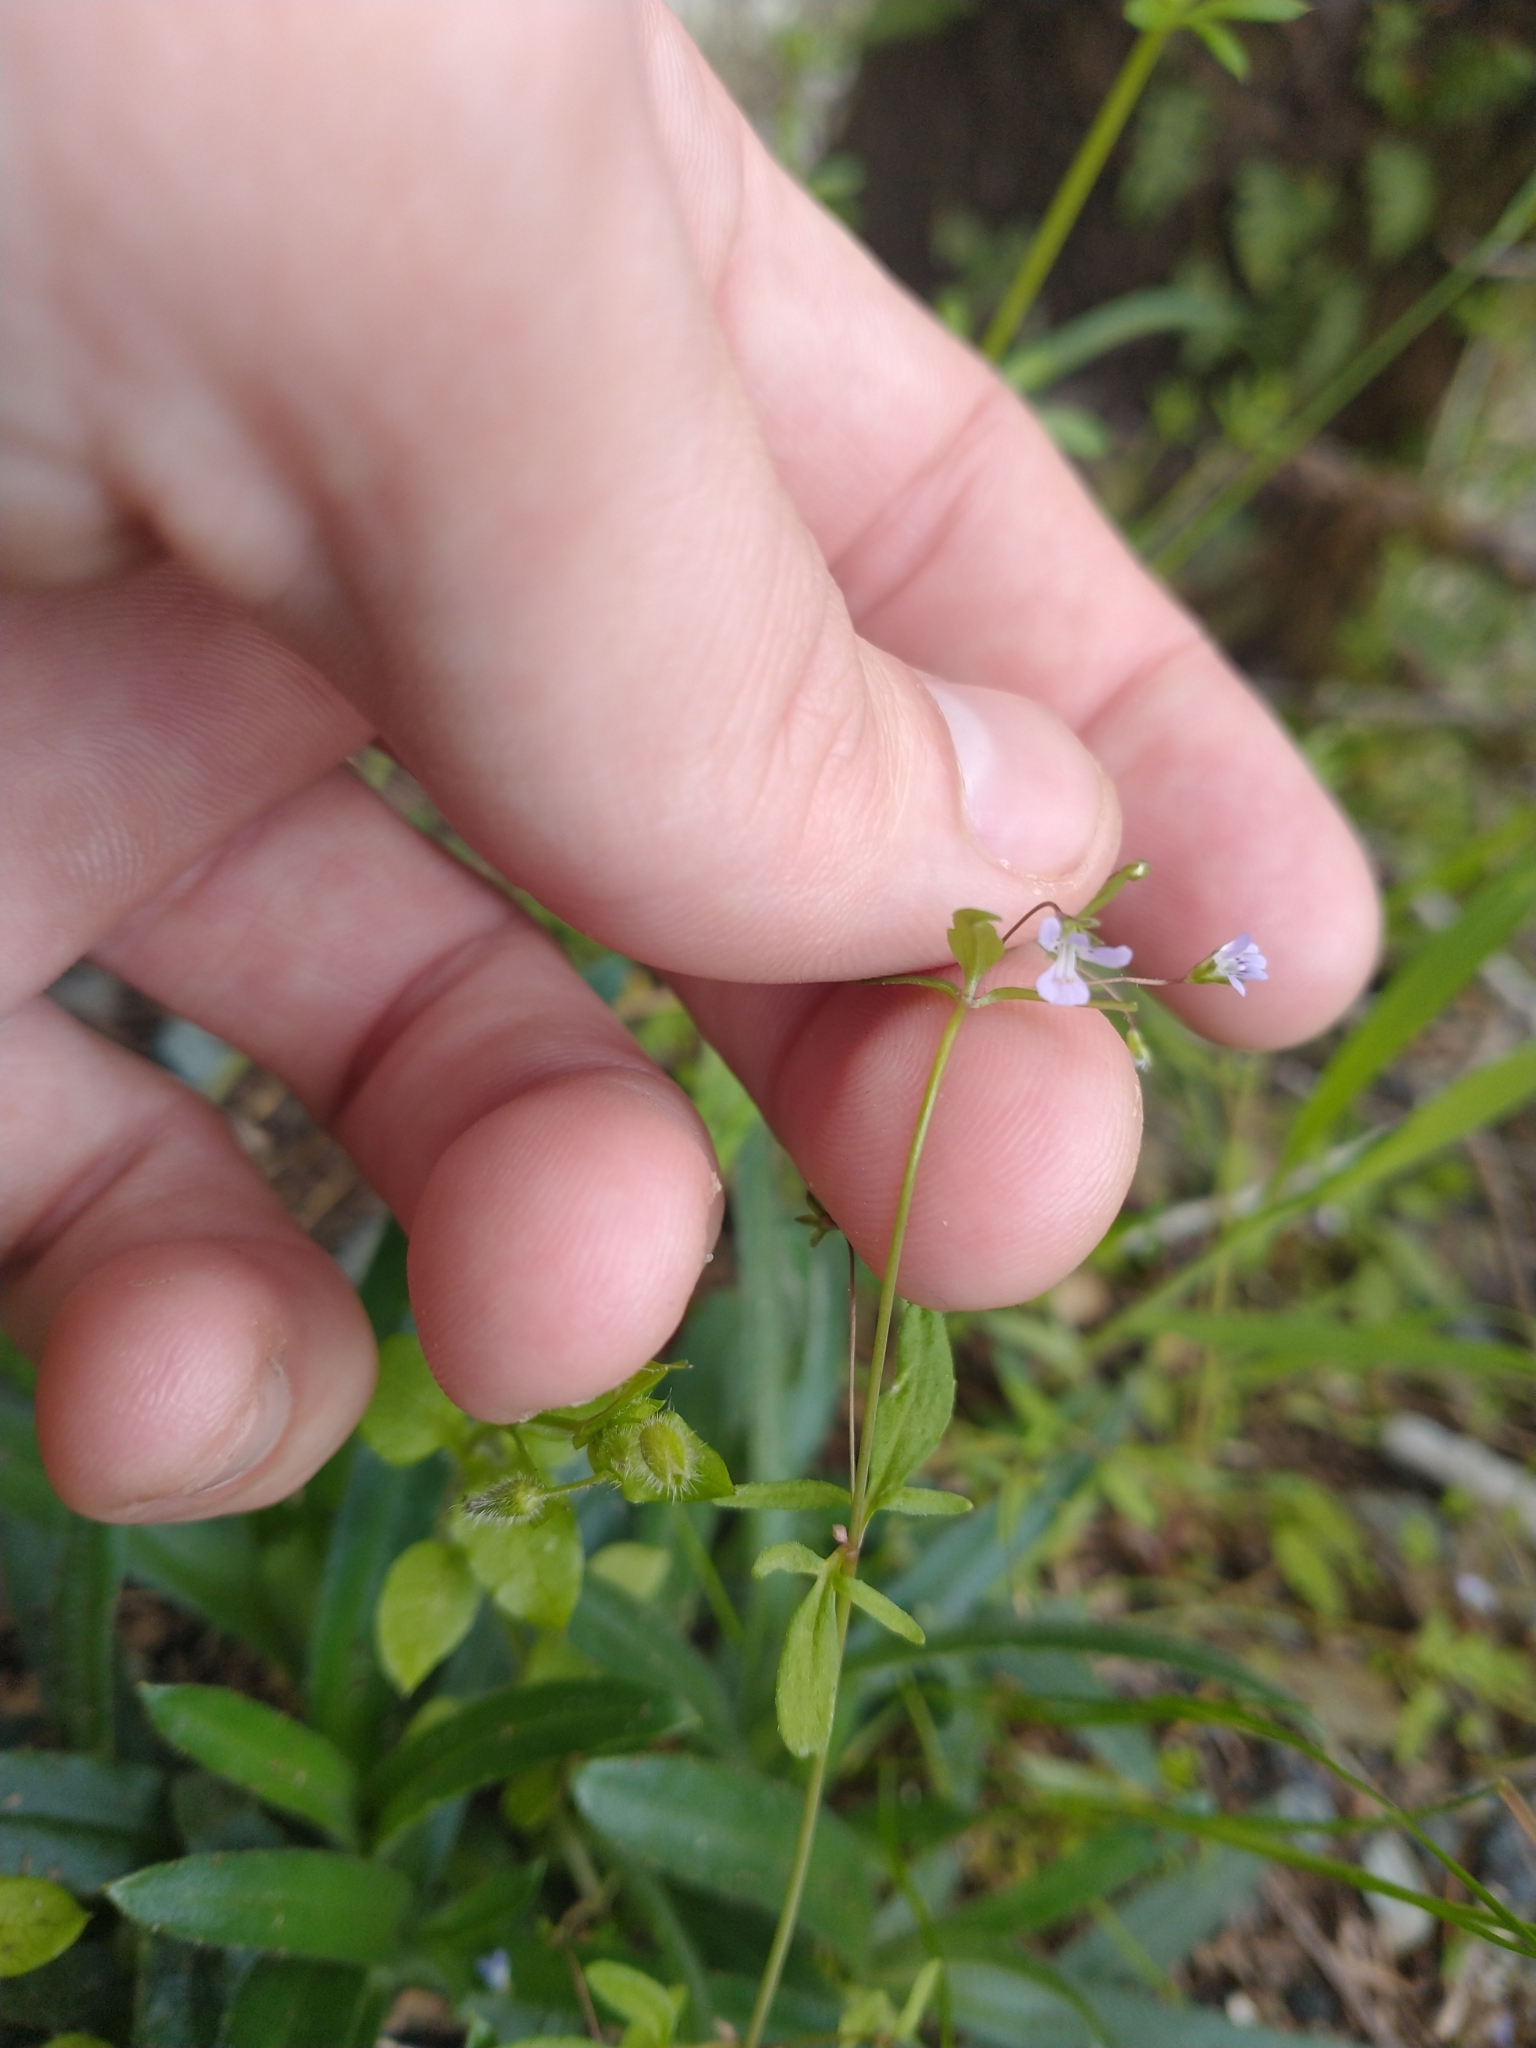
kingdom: Plantae
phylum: Tracheophyta
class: Magnoliopsida
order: Lamiales
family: Plantaginaceae
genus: Tonella
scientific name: Tonella tenella
